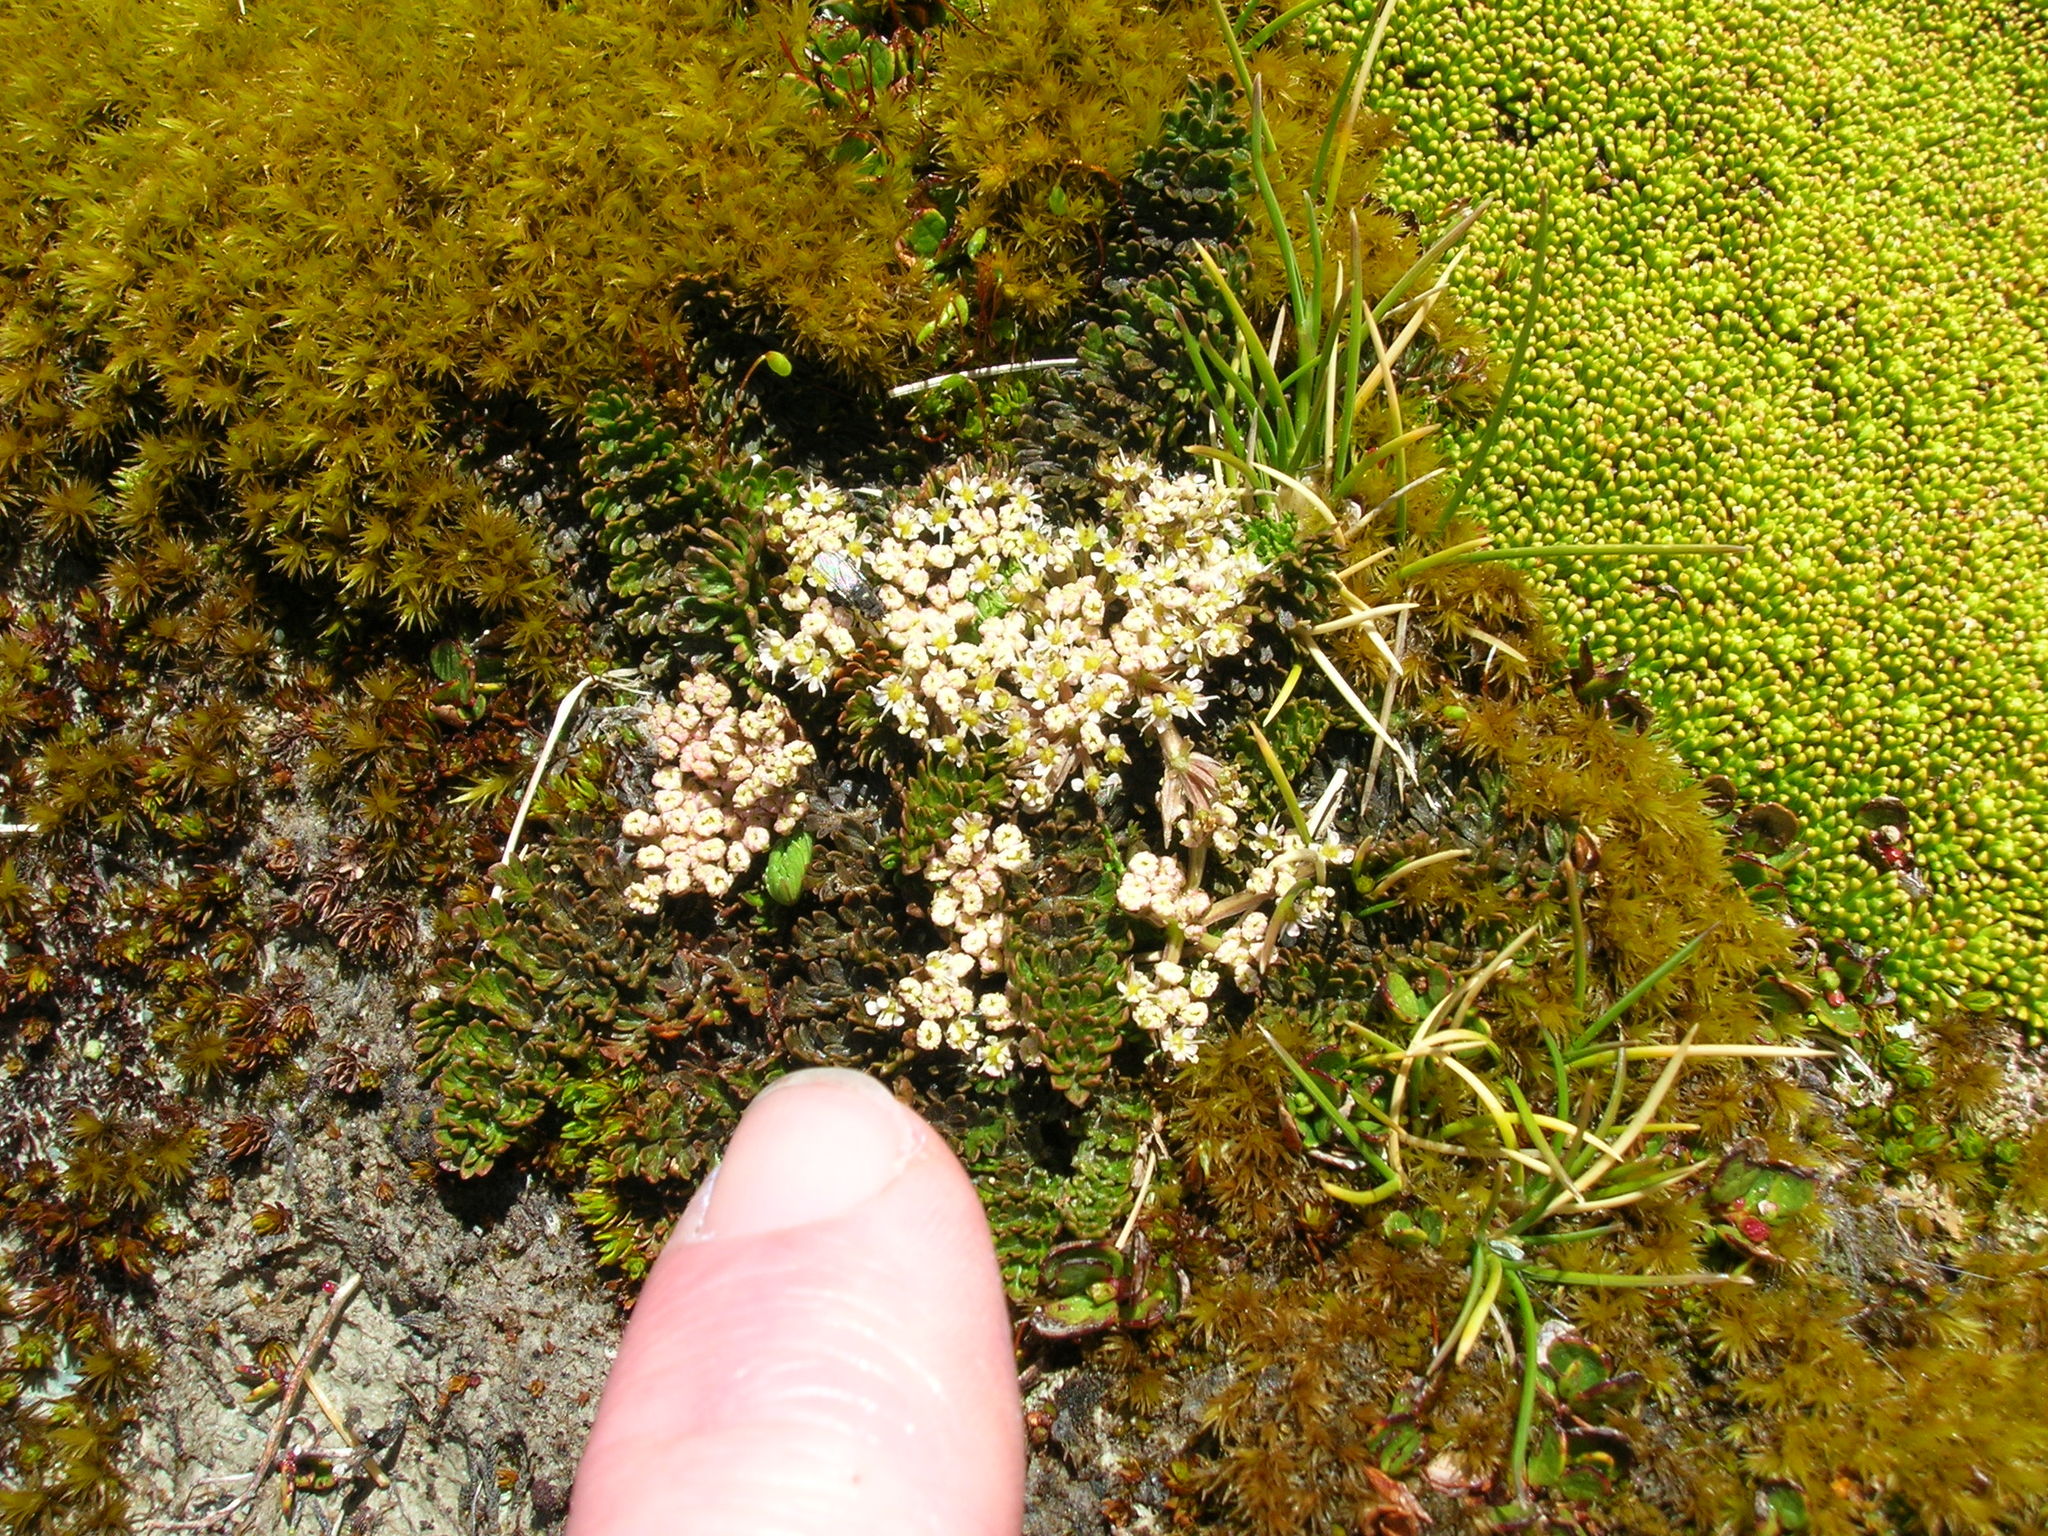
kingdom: Plantae
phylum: Tracheophyta
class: Magnoliopsida
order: Apiales
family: Apiaceae
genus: Gingidia
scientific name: Gingidia decipiens
